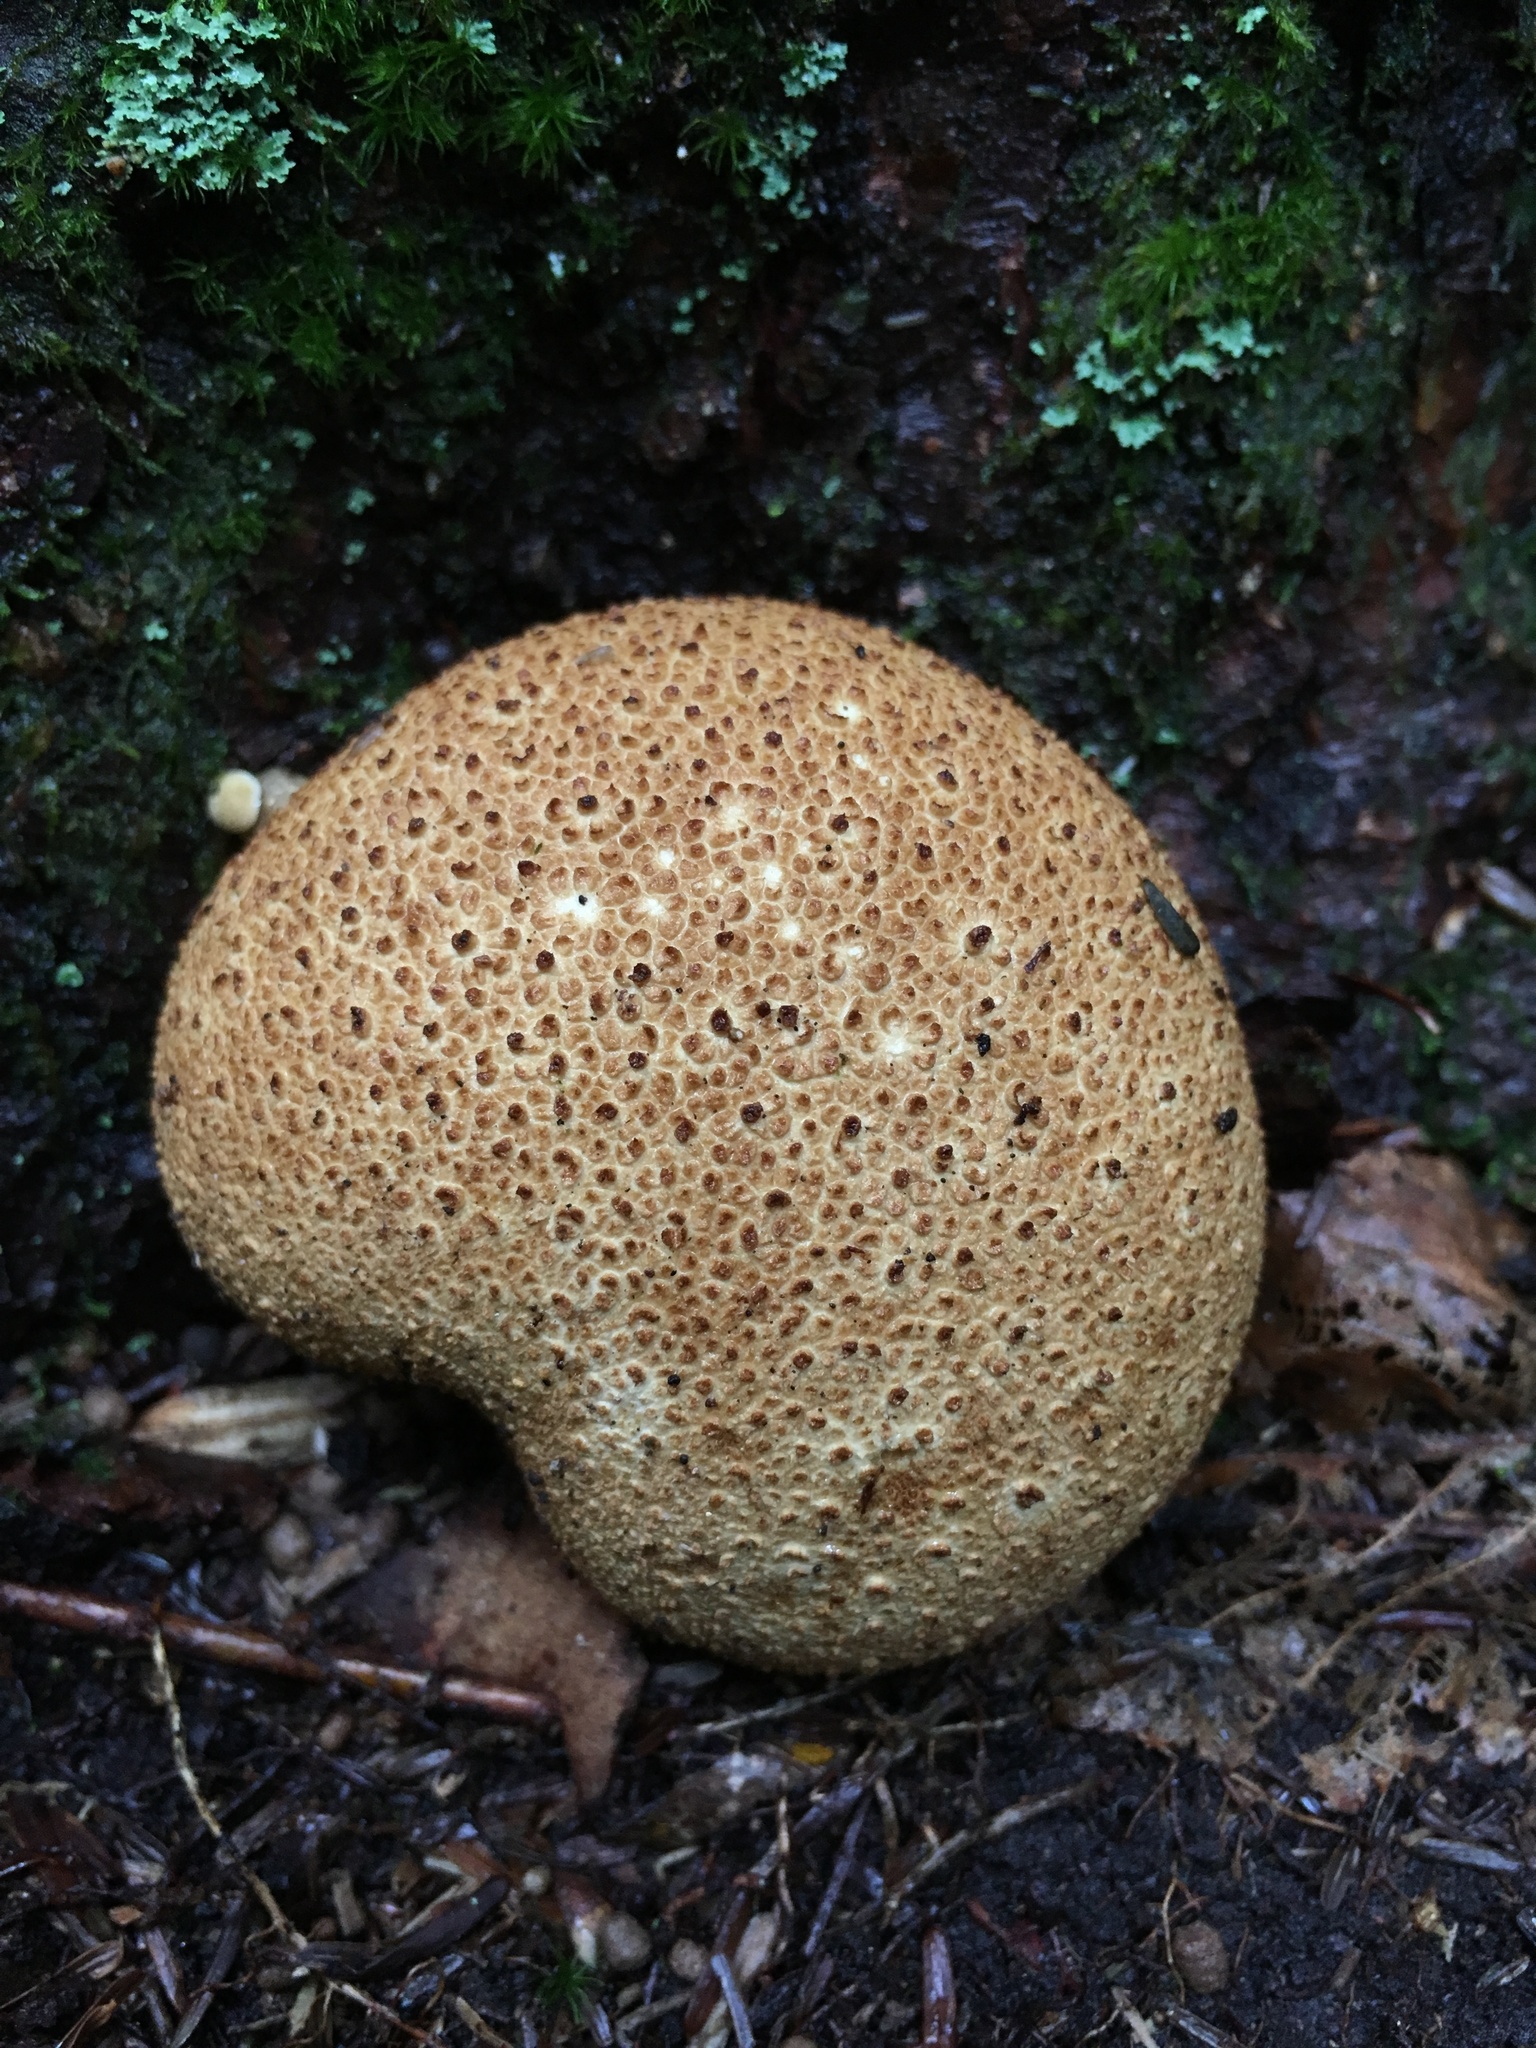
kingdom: Fungi
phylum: Basidiomycota
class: Agaricomycetes
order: Boletales
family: Sclerodermataceae
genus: Scleroderma
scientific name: Scleroderma citrinum
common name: Common earthball
